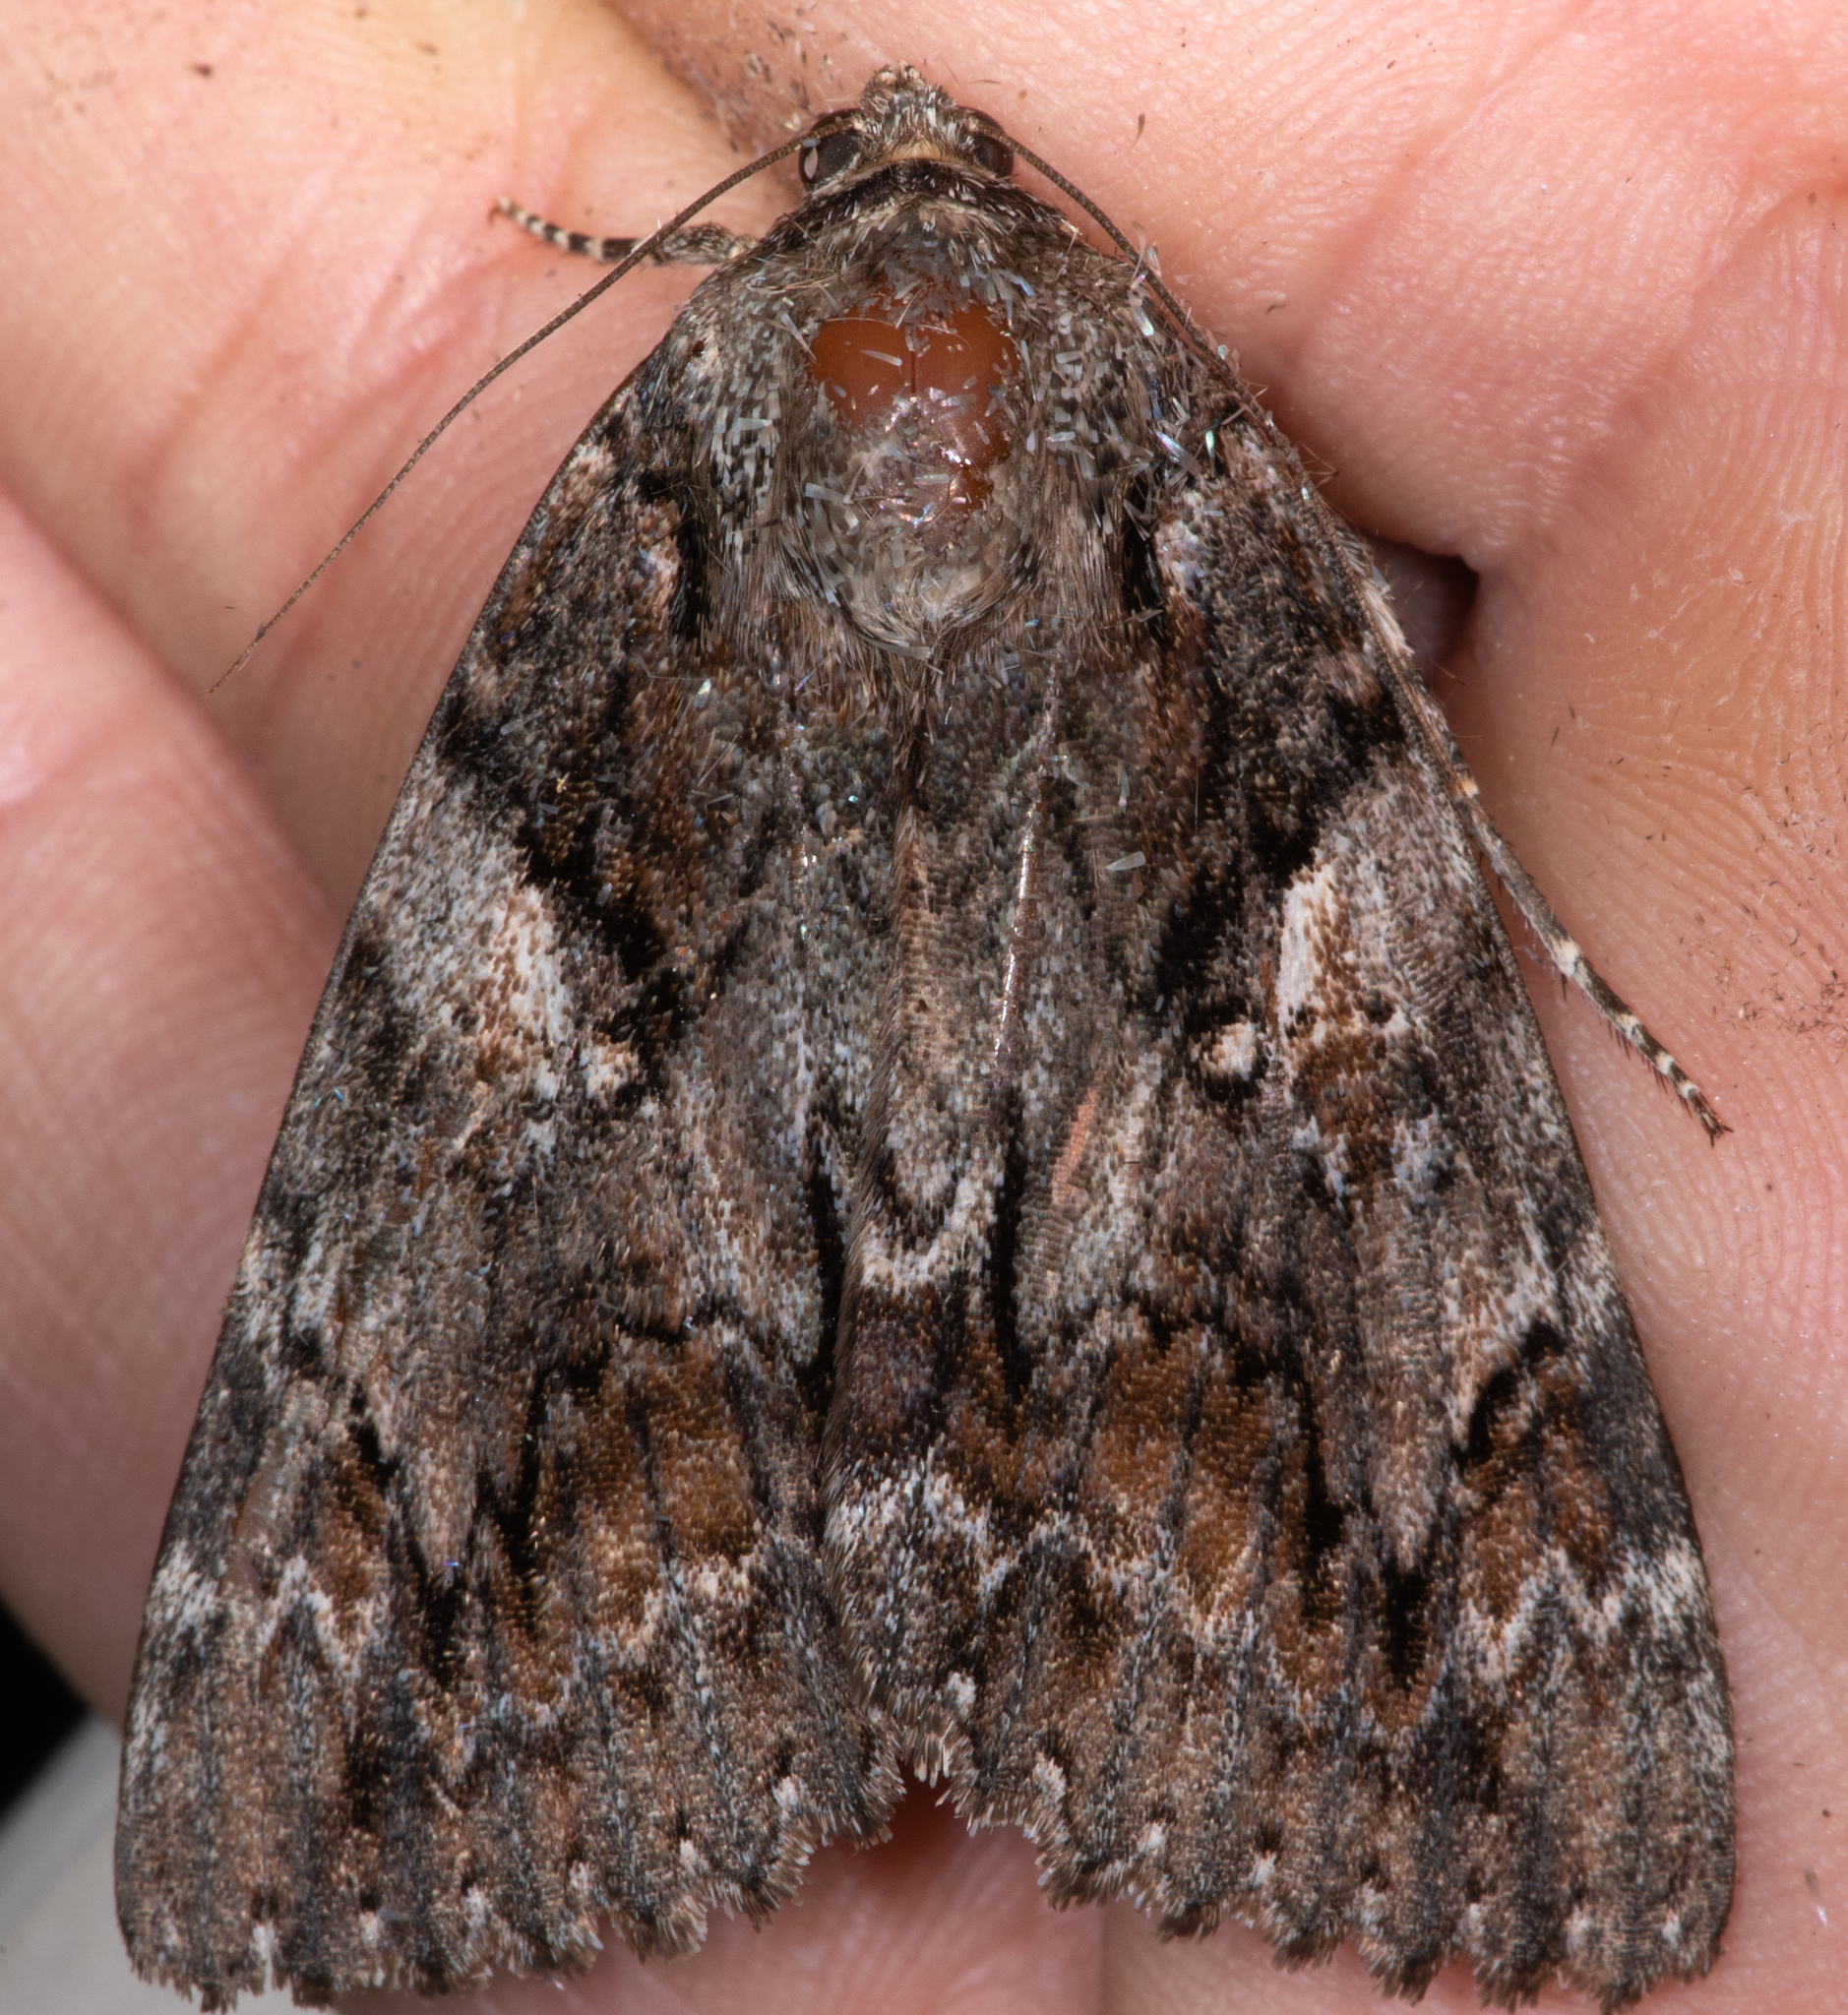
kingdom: Animalia
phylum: Arthropoda
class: Insecta
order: Lepidoptera
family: Erebidae
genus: Catocala
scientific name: Catocala aholibah
